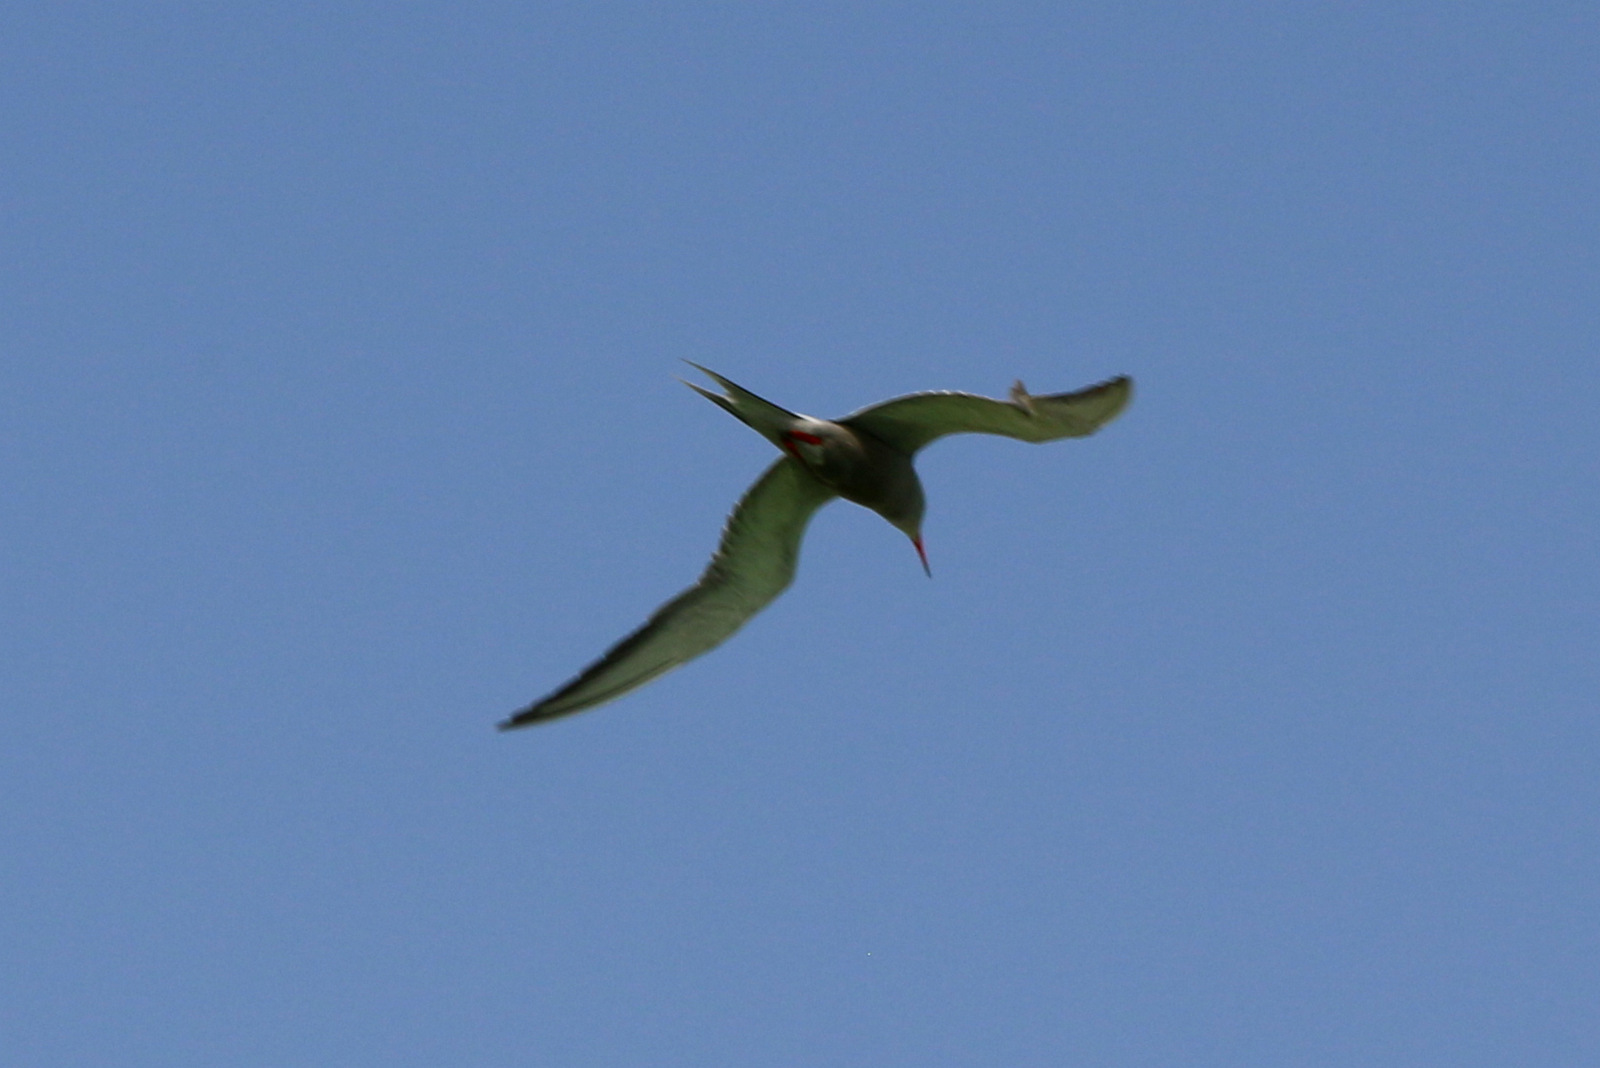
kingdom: Animalia
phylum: Chordata
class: Aves
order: Charadriiformes
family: Laridae
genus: Sterna
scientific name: Sterna repressa
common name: White-cheeked tern
